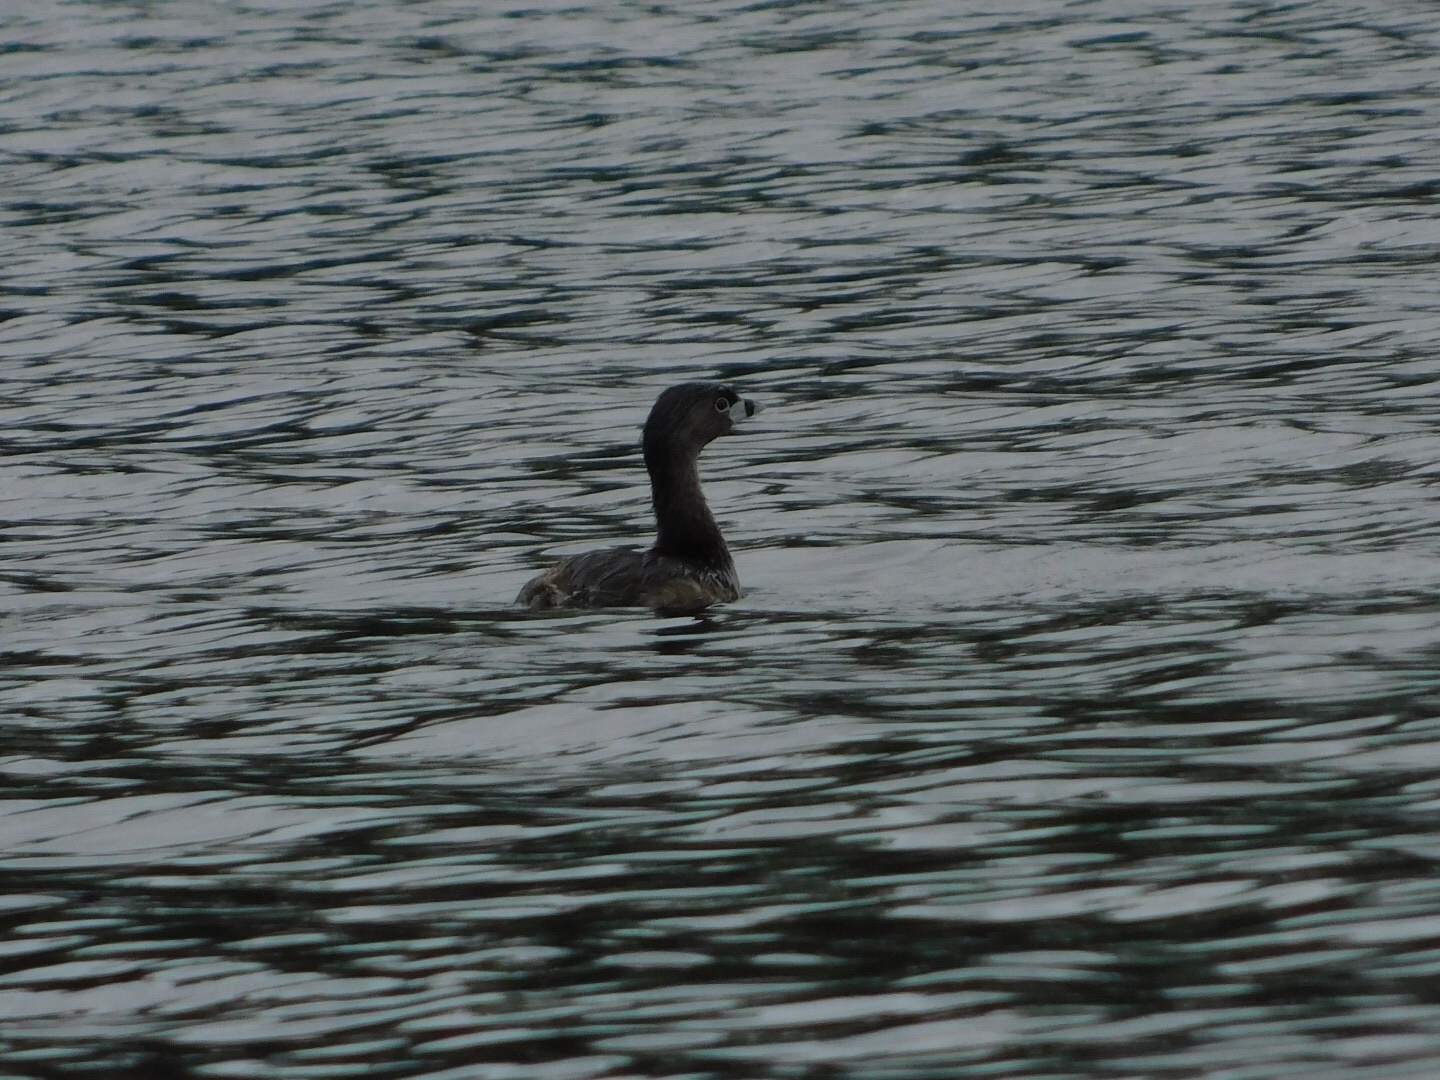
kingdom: Animalia
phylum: Chordata
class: Aves
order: Podicipediformes
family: Podicipedidae
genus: Podilymbus
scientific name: Podilymbus podiceps
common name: Pied-billed grebe
